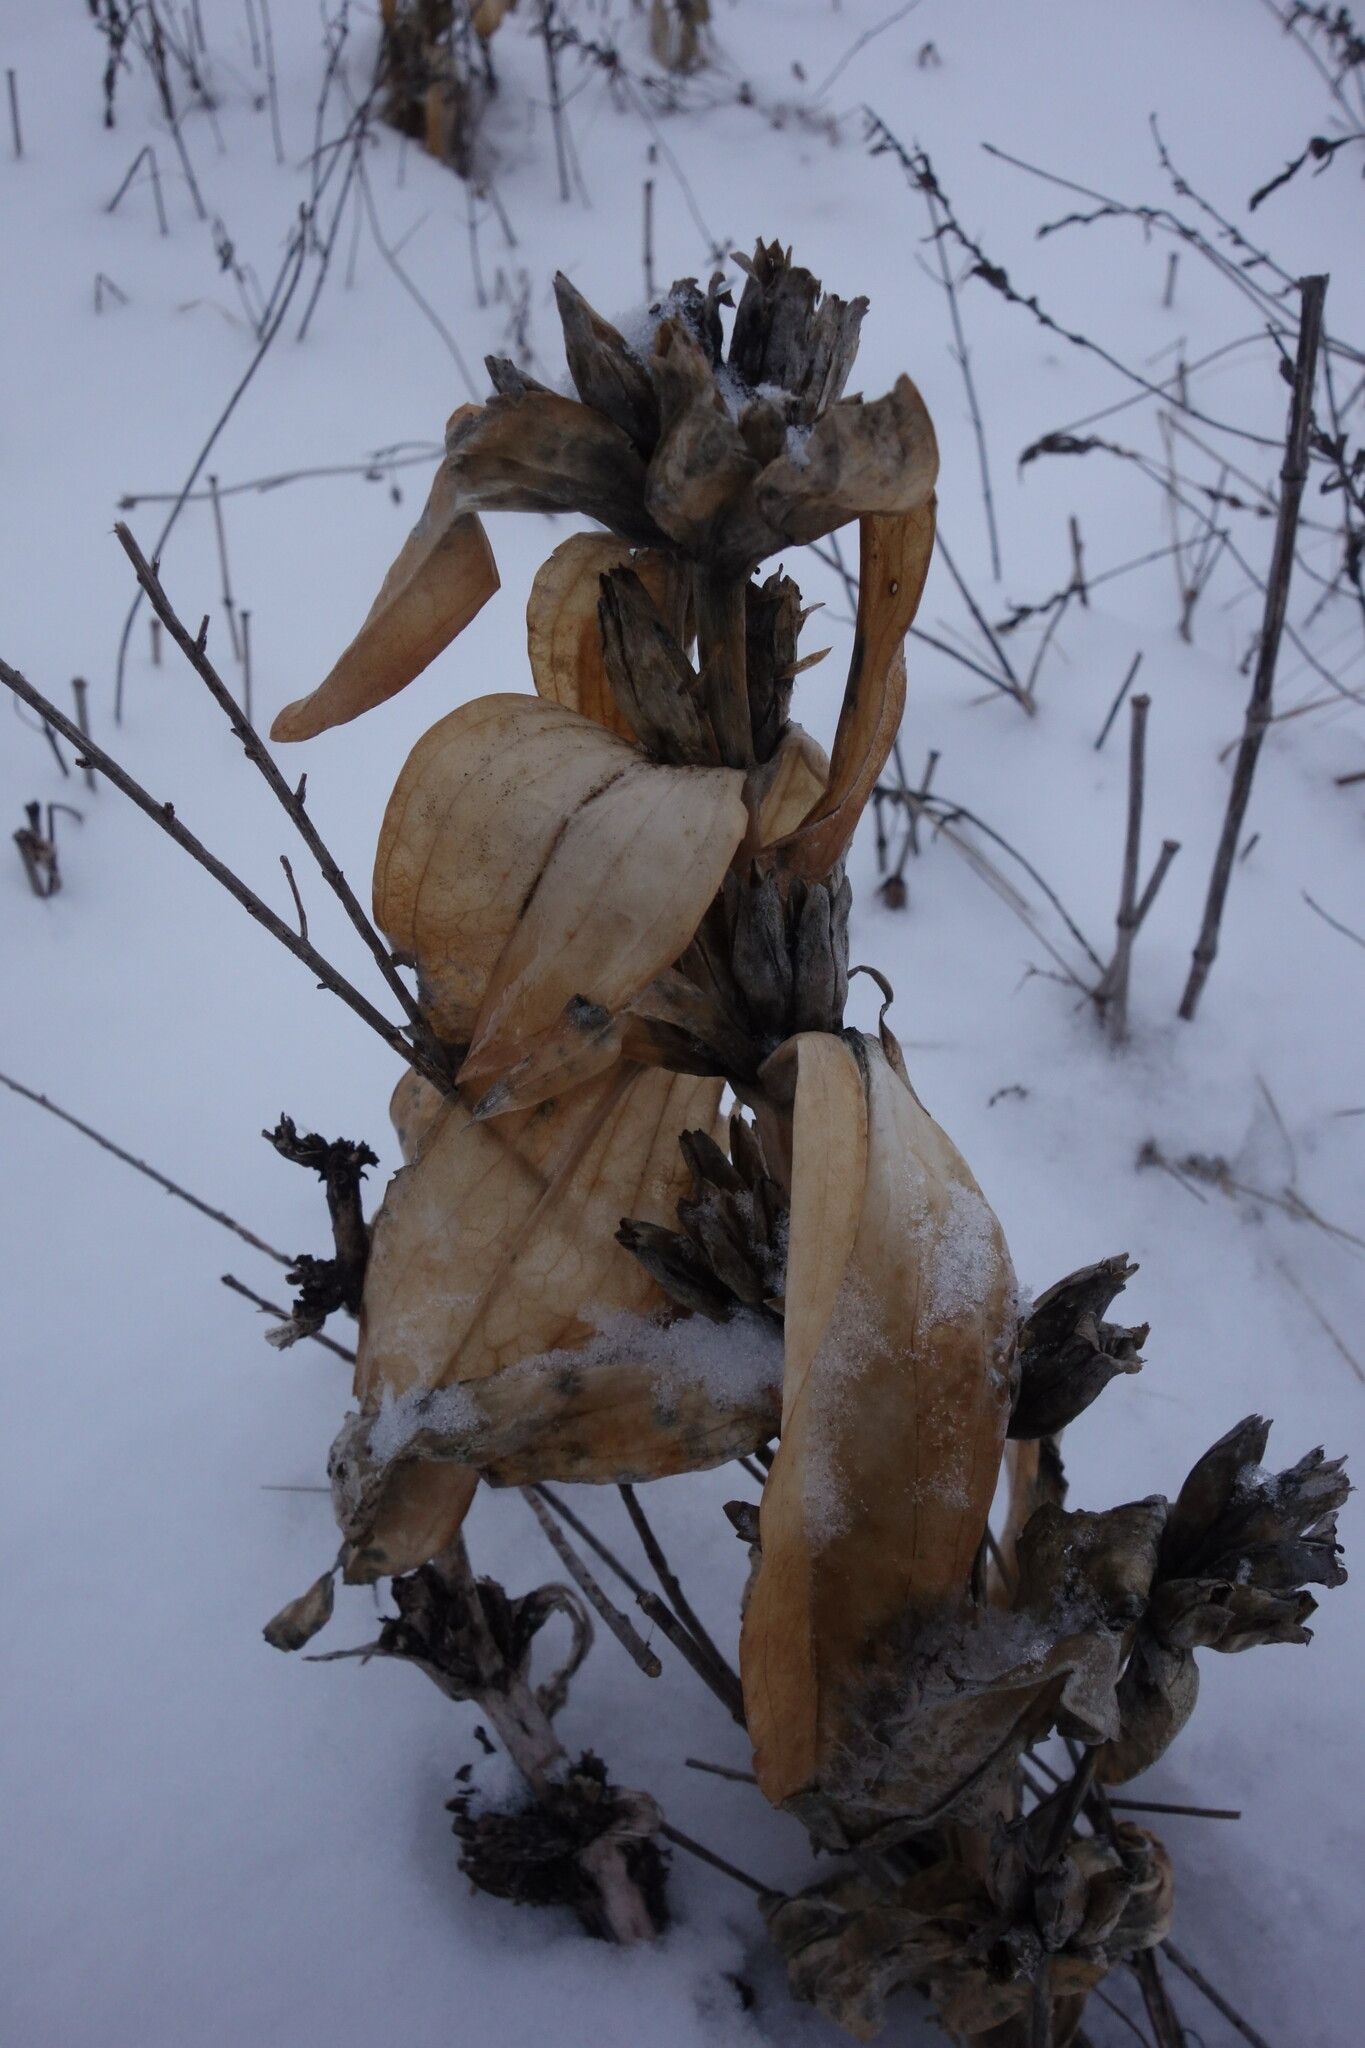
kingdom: Plantae
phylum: Tracheophyta
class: Magnoliopsida
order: Gentianales
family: Gentianaceae
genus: Gentiana
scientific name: Gentiana cruciata
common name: Cross gentian
